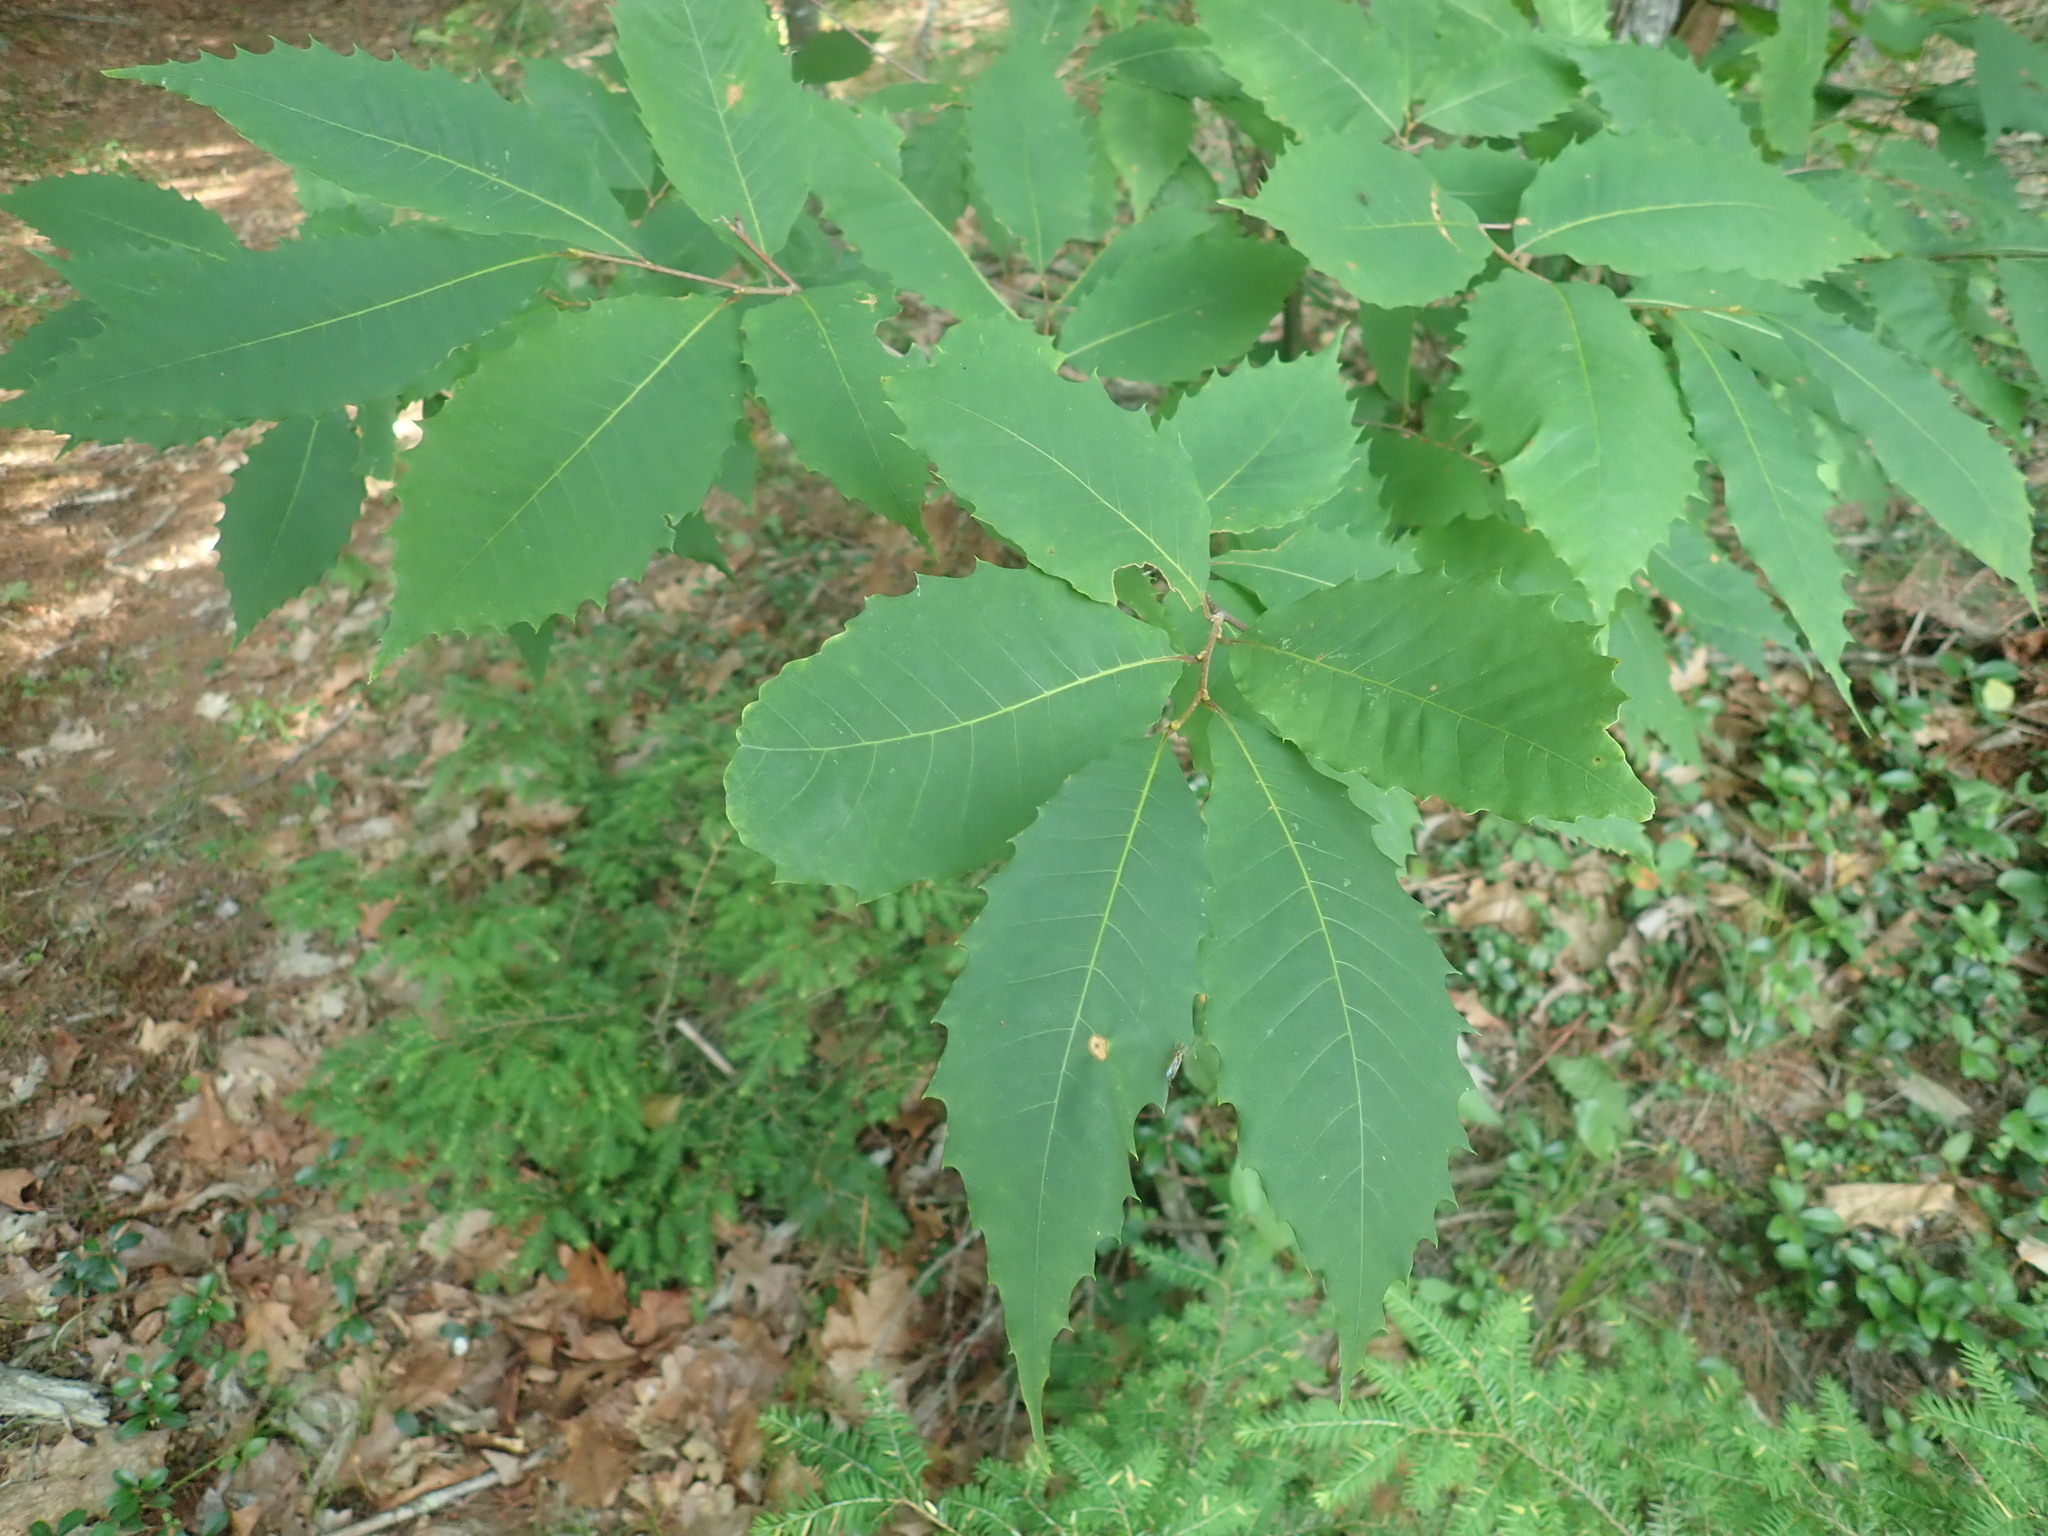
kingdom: Plantae
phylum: Tracheophyta
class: Magnoliopsida
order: Fagales
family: Fagaceae
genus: Castanea
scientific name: Castanea dentata
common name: American chestnut
